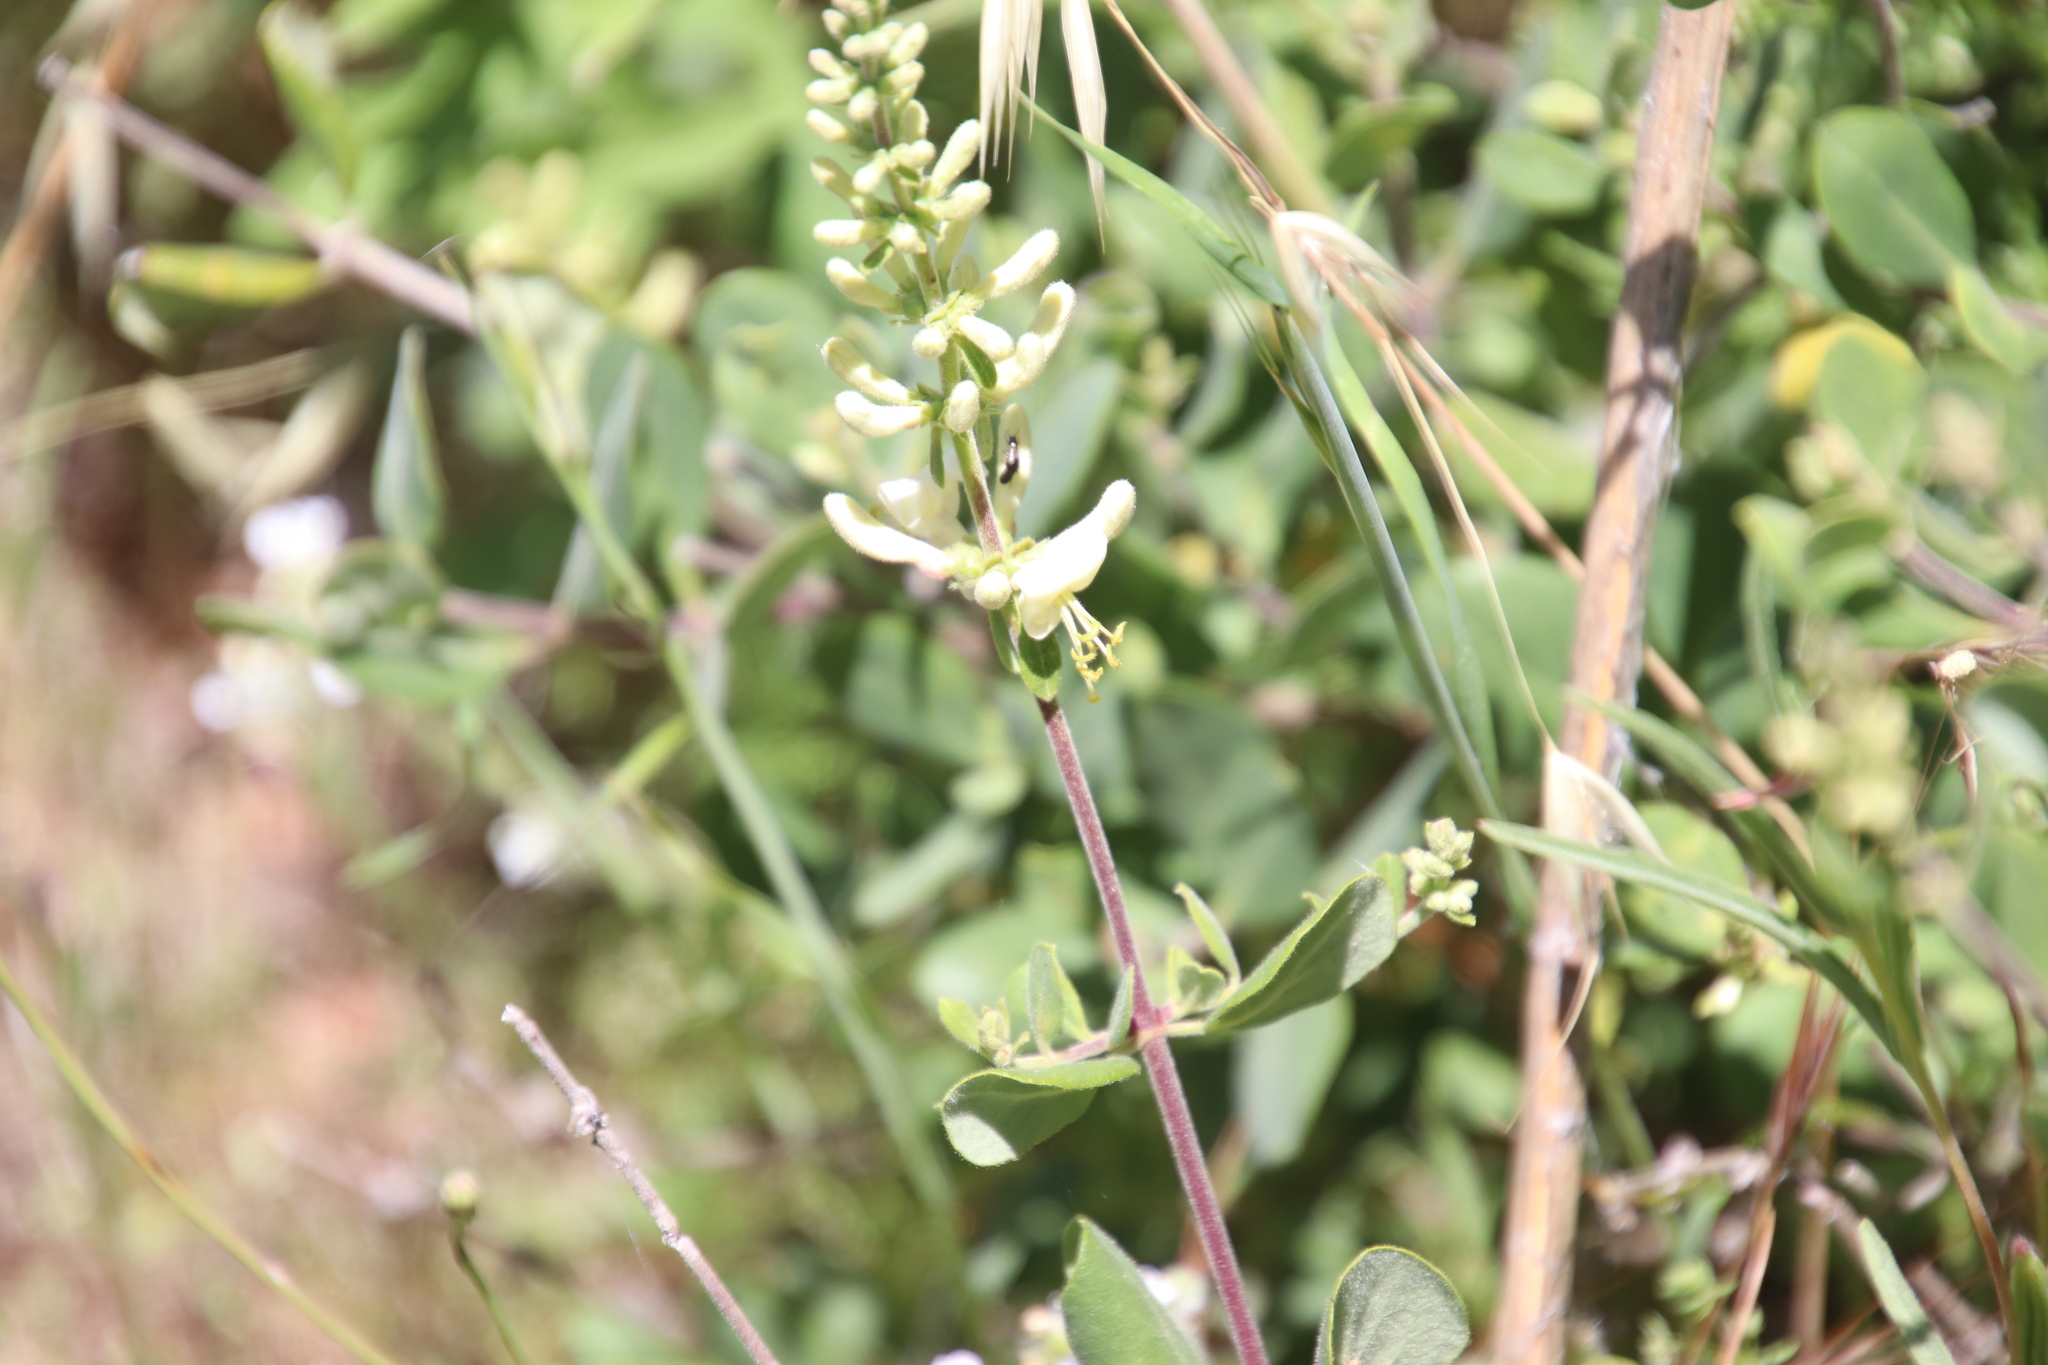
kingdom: Plantae
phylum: Tracheophyta
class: Magnoliopsida
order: Dipsacales
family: Caprifoliaceae
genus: Lonicera
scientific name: Lonicera subspicata
